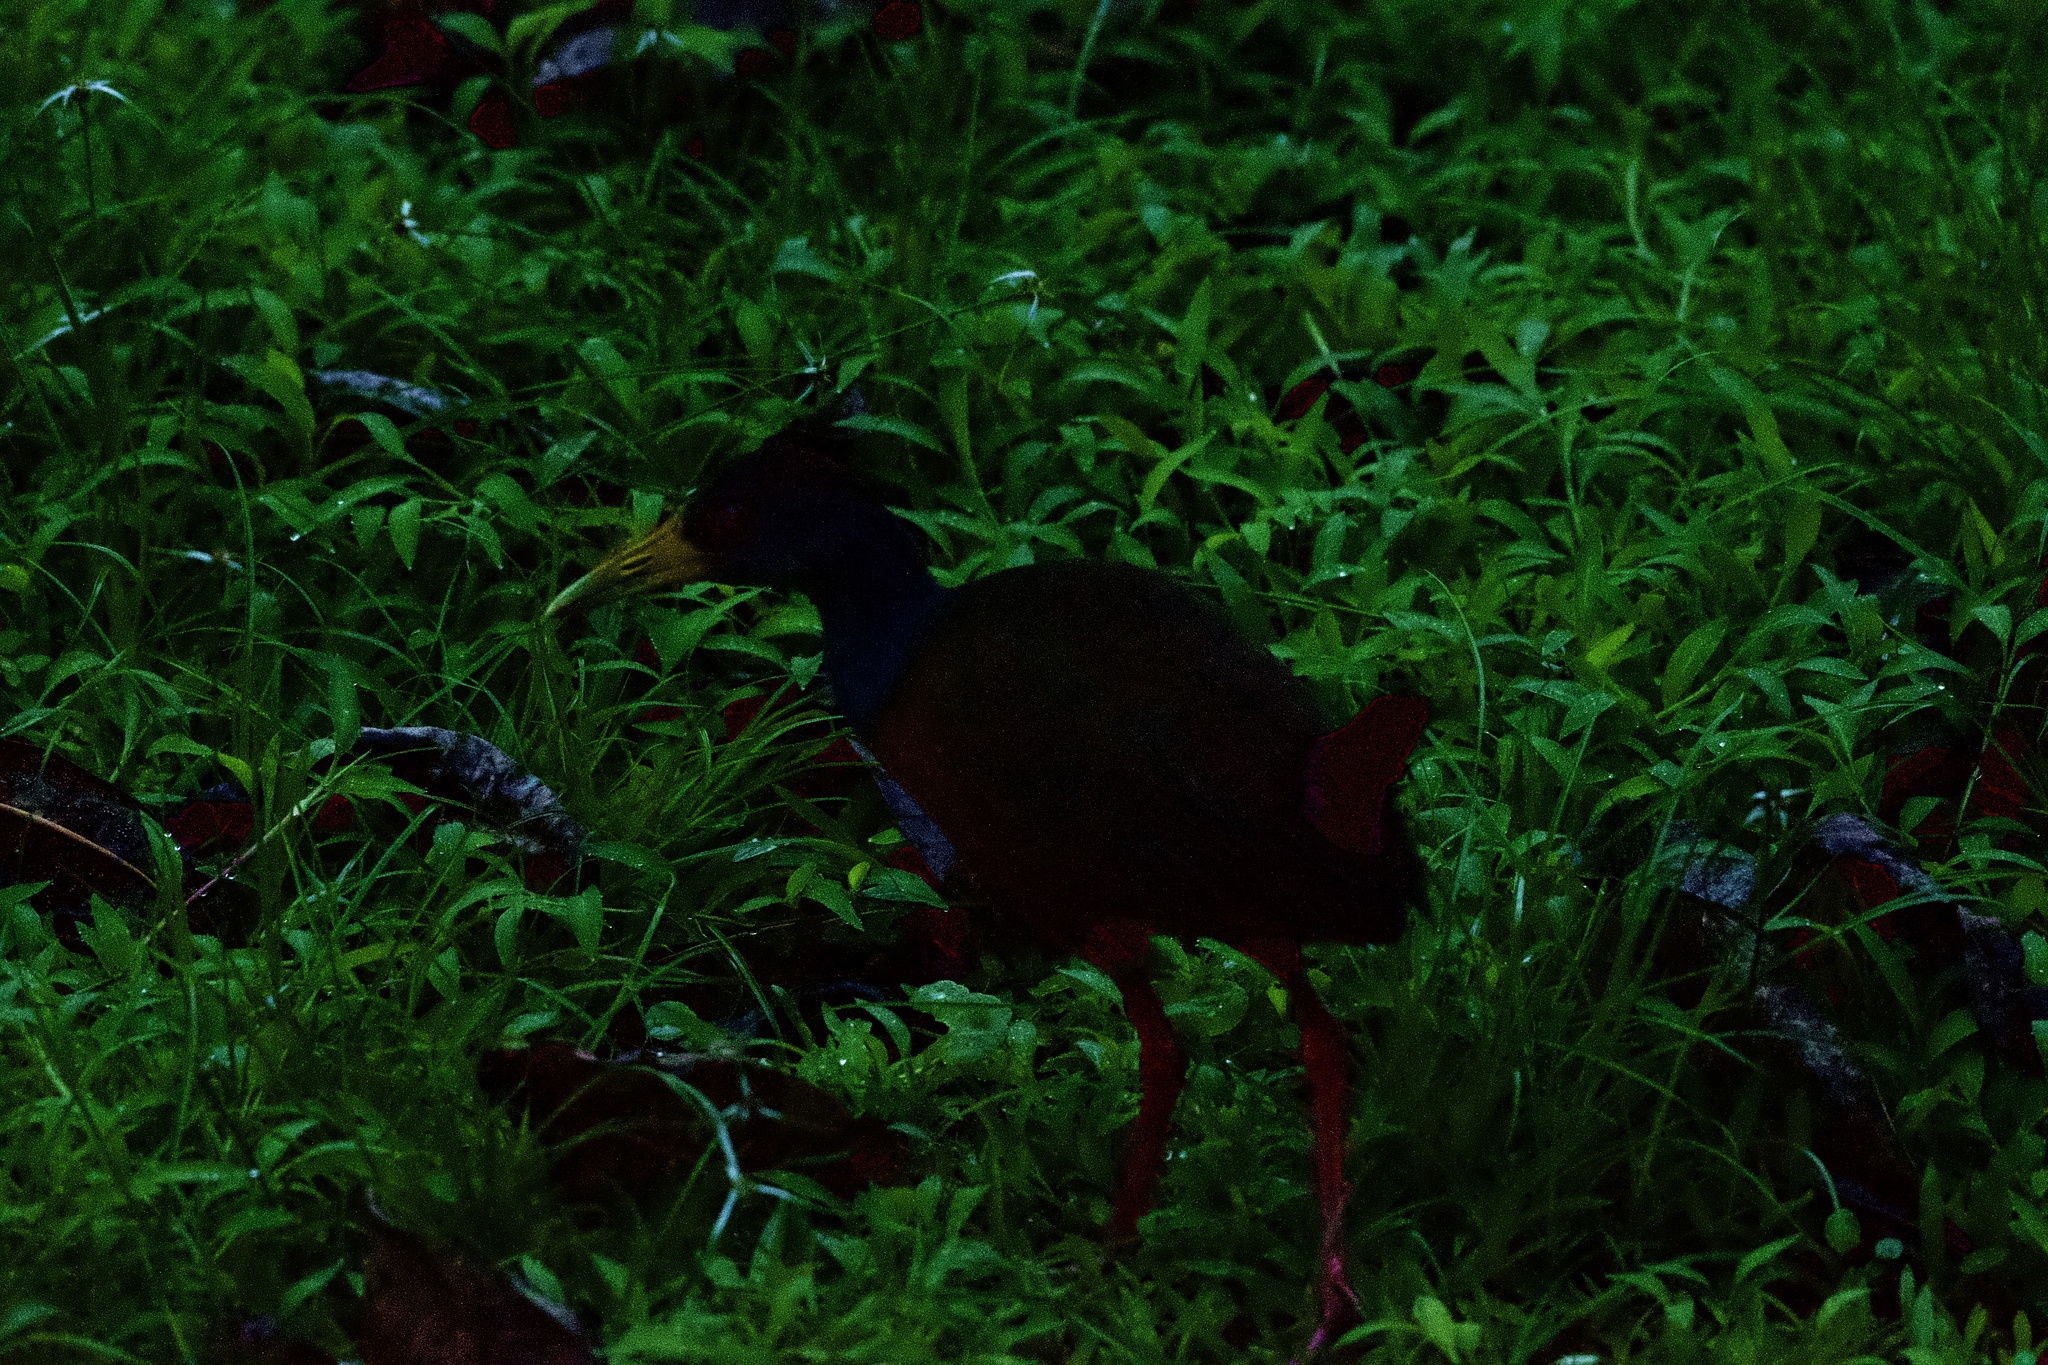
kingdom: Animalia
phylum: Chordata
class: Aves
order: Gruiformes
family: Rallidae
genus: Aramides
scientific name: Aramides cajanea
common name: Gray-necked wood-rail
